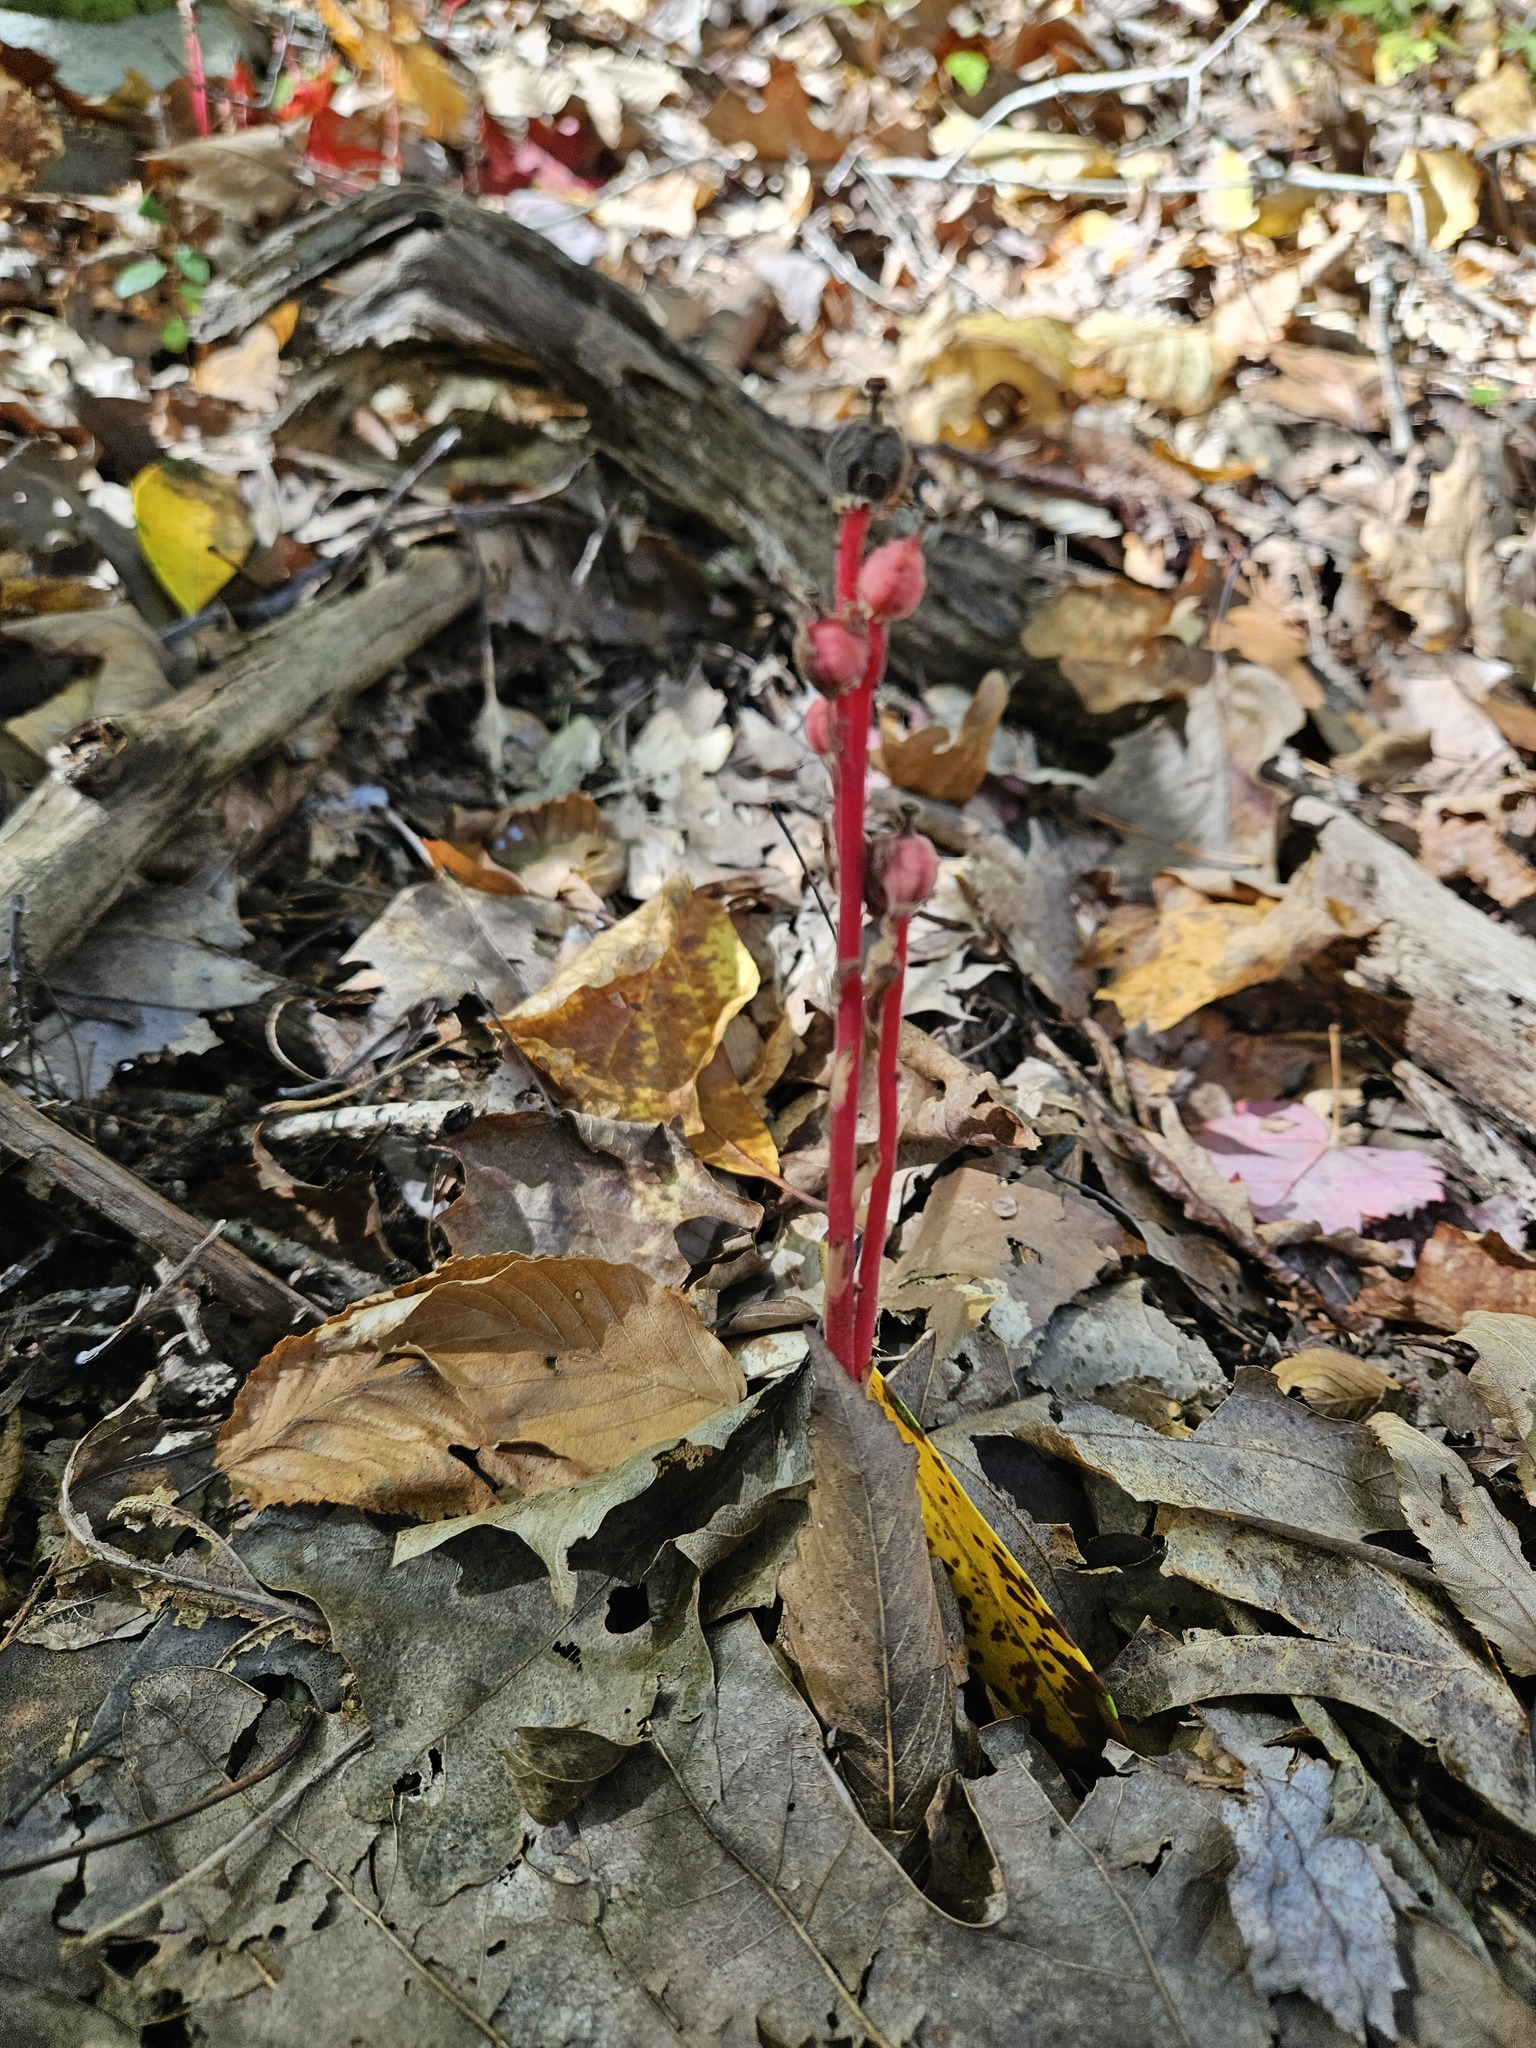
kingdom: Plantae
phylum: Tracheophyta
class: Magnoliopsida
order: Ericales
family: Ericaceae
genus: Hypopitys
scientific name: Hypopitys monotropa
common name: Yellow bird's-nest
